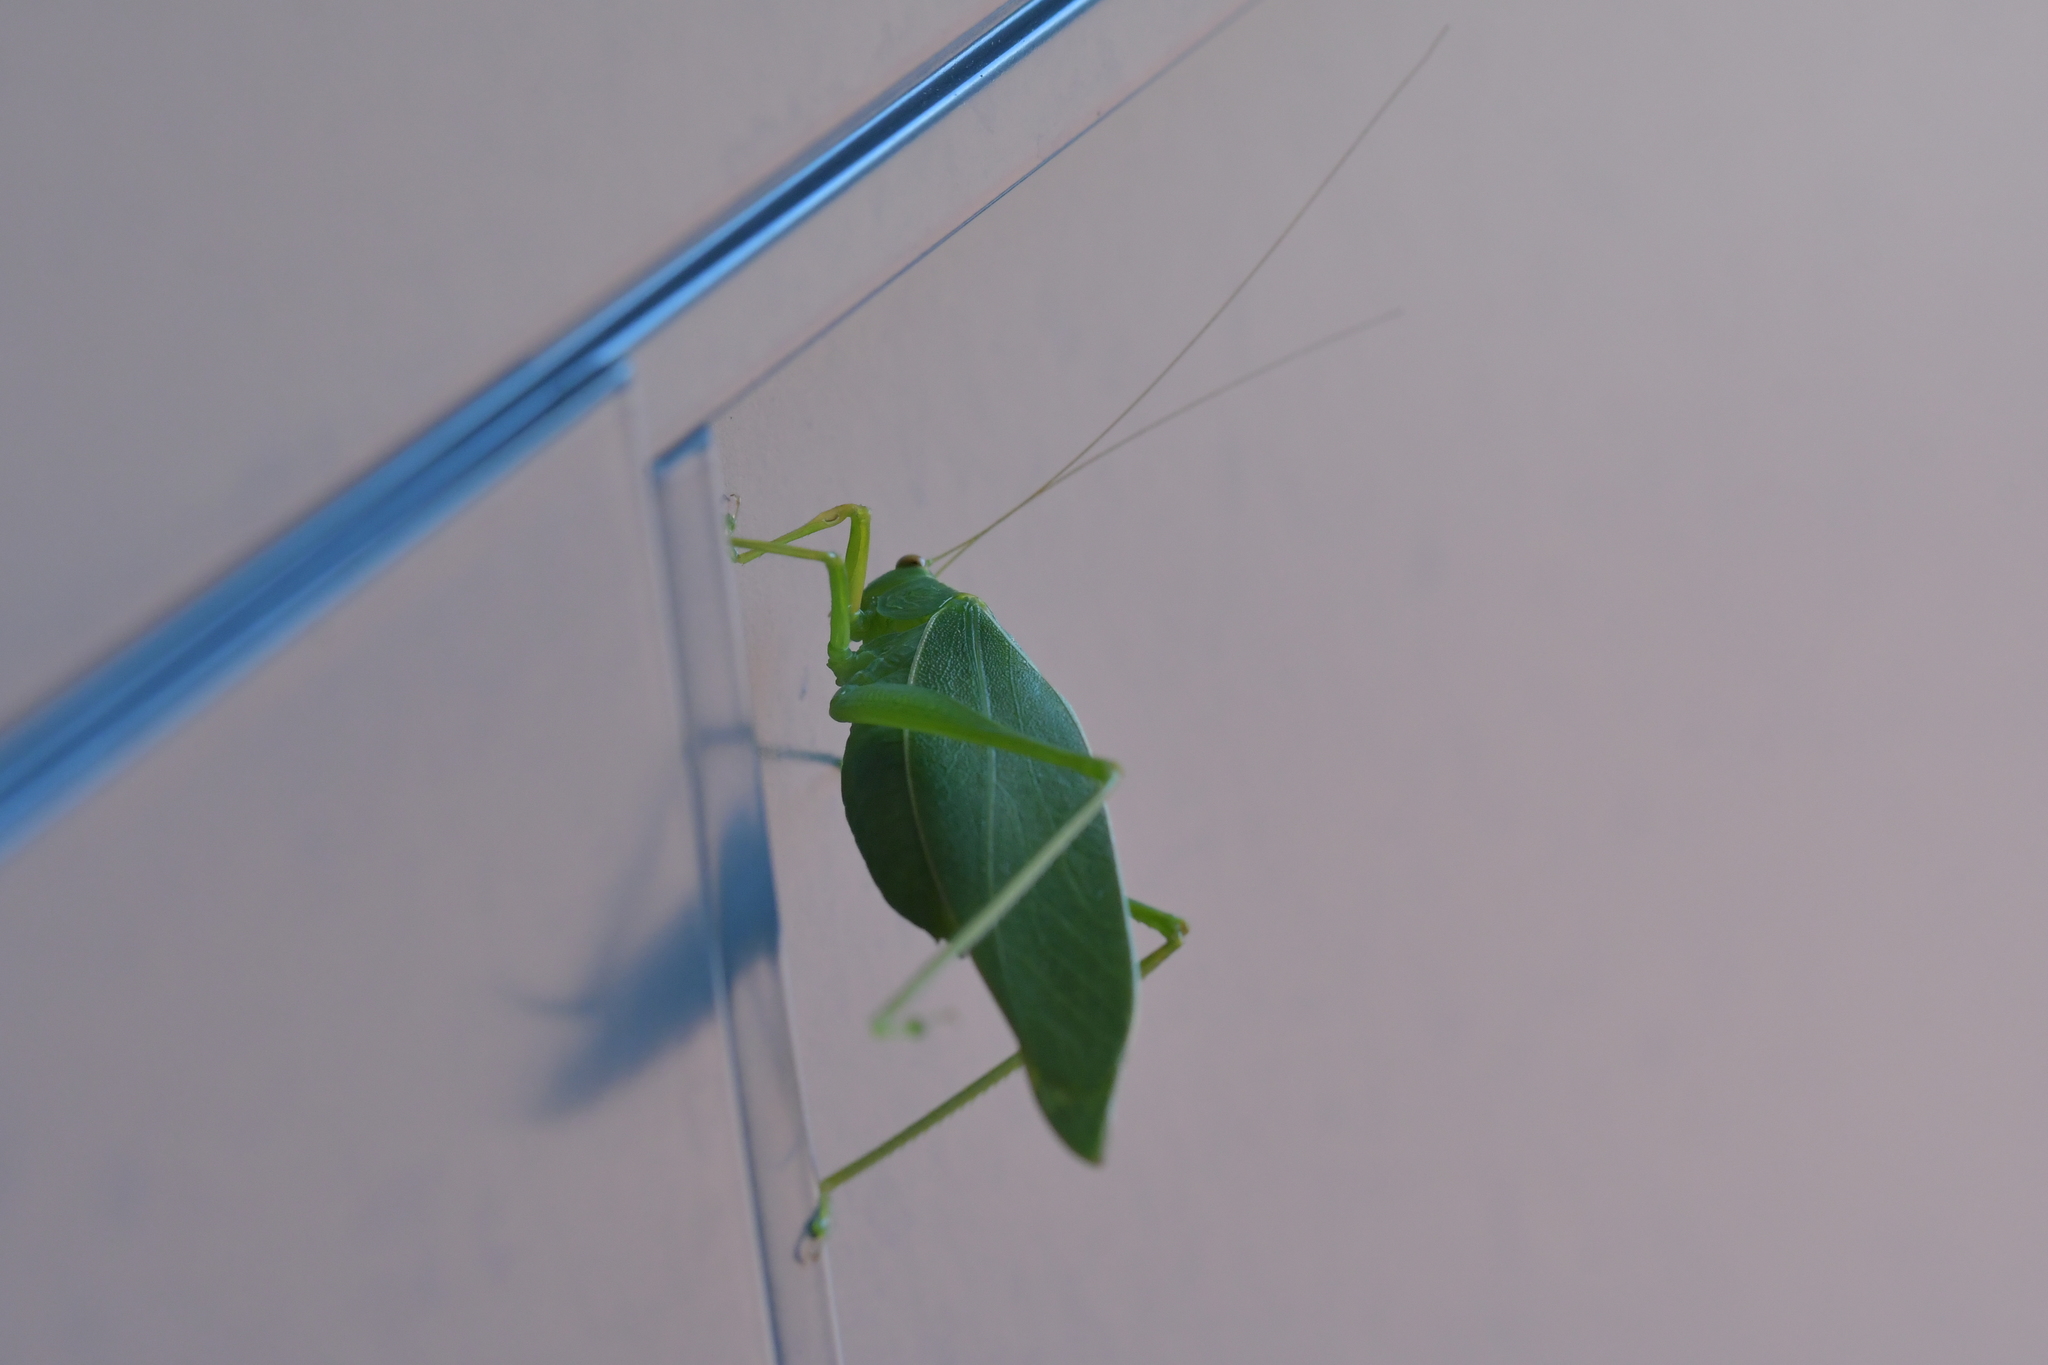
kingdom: Animalia
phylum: Arthropoda
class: Insecta
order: Orthoptera
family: Tettigoniidae
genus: Caedicia
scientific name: Caedicia simplex
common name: Common garden katydid
